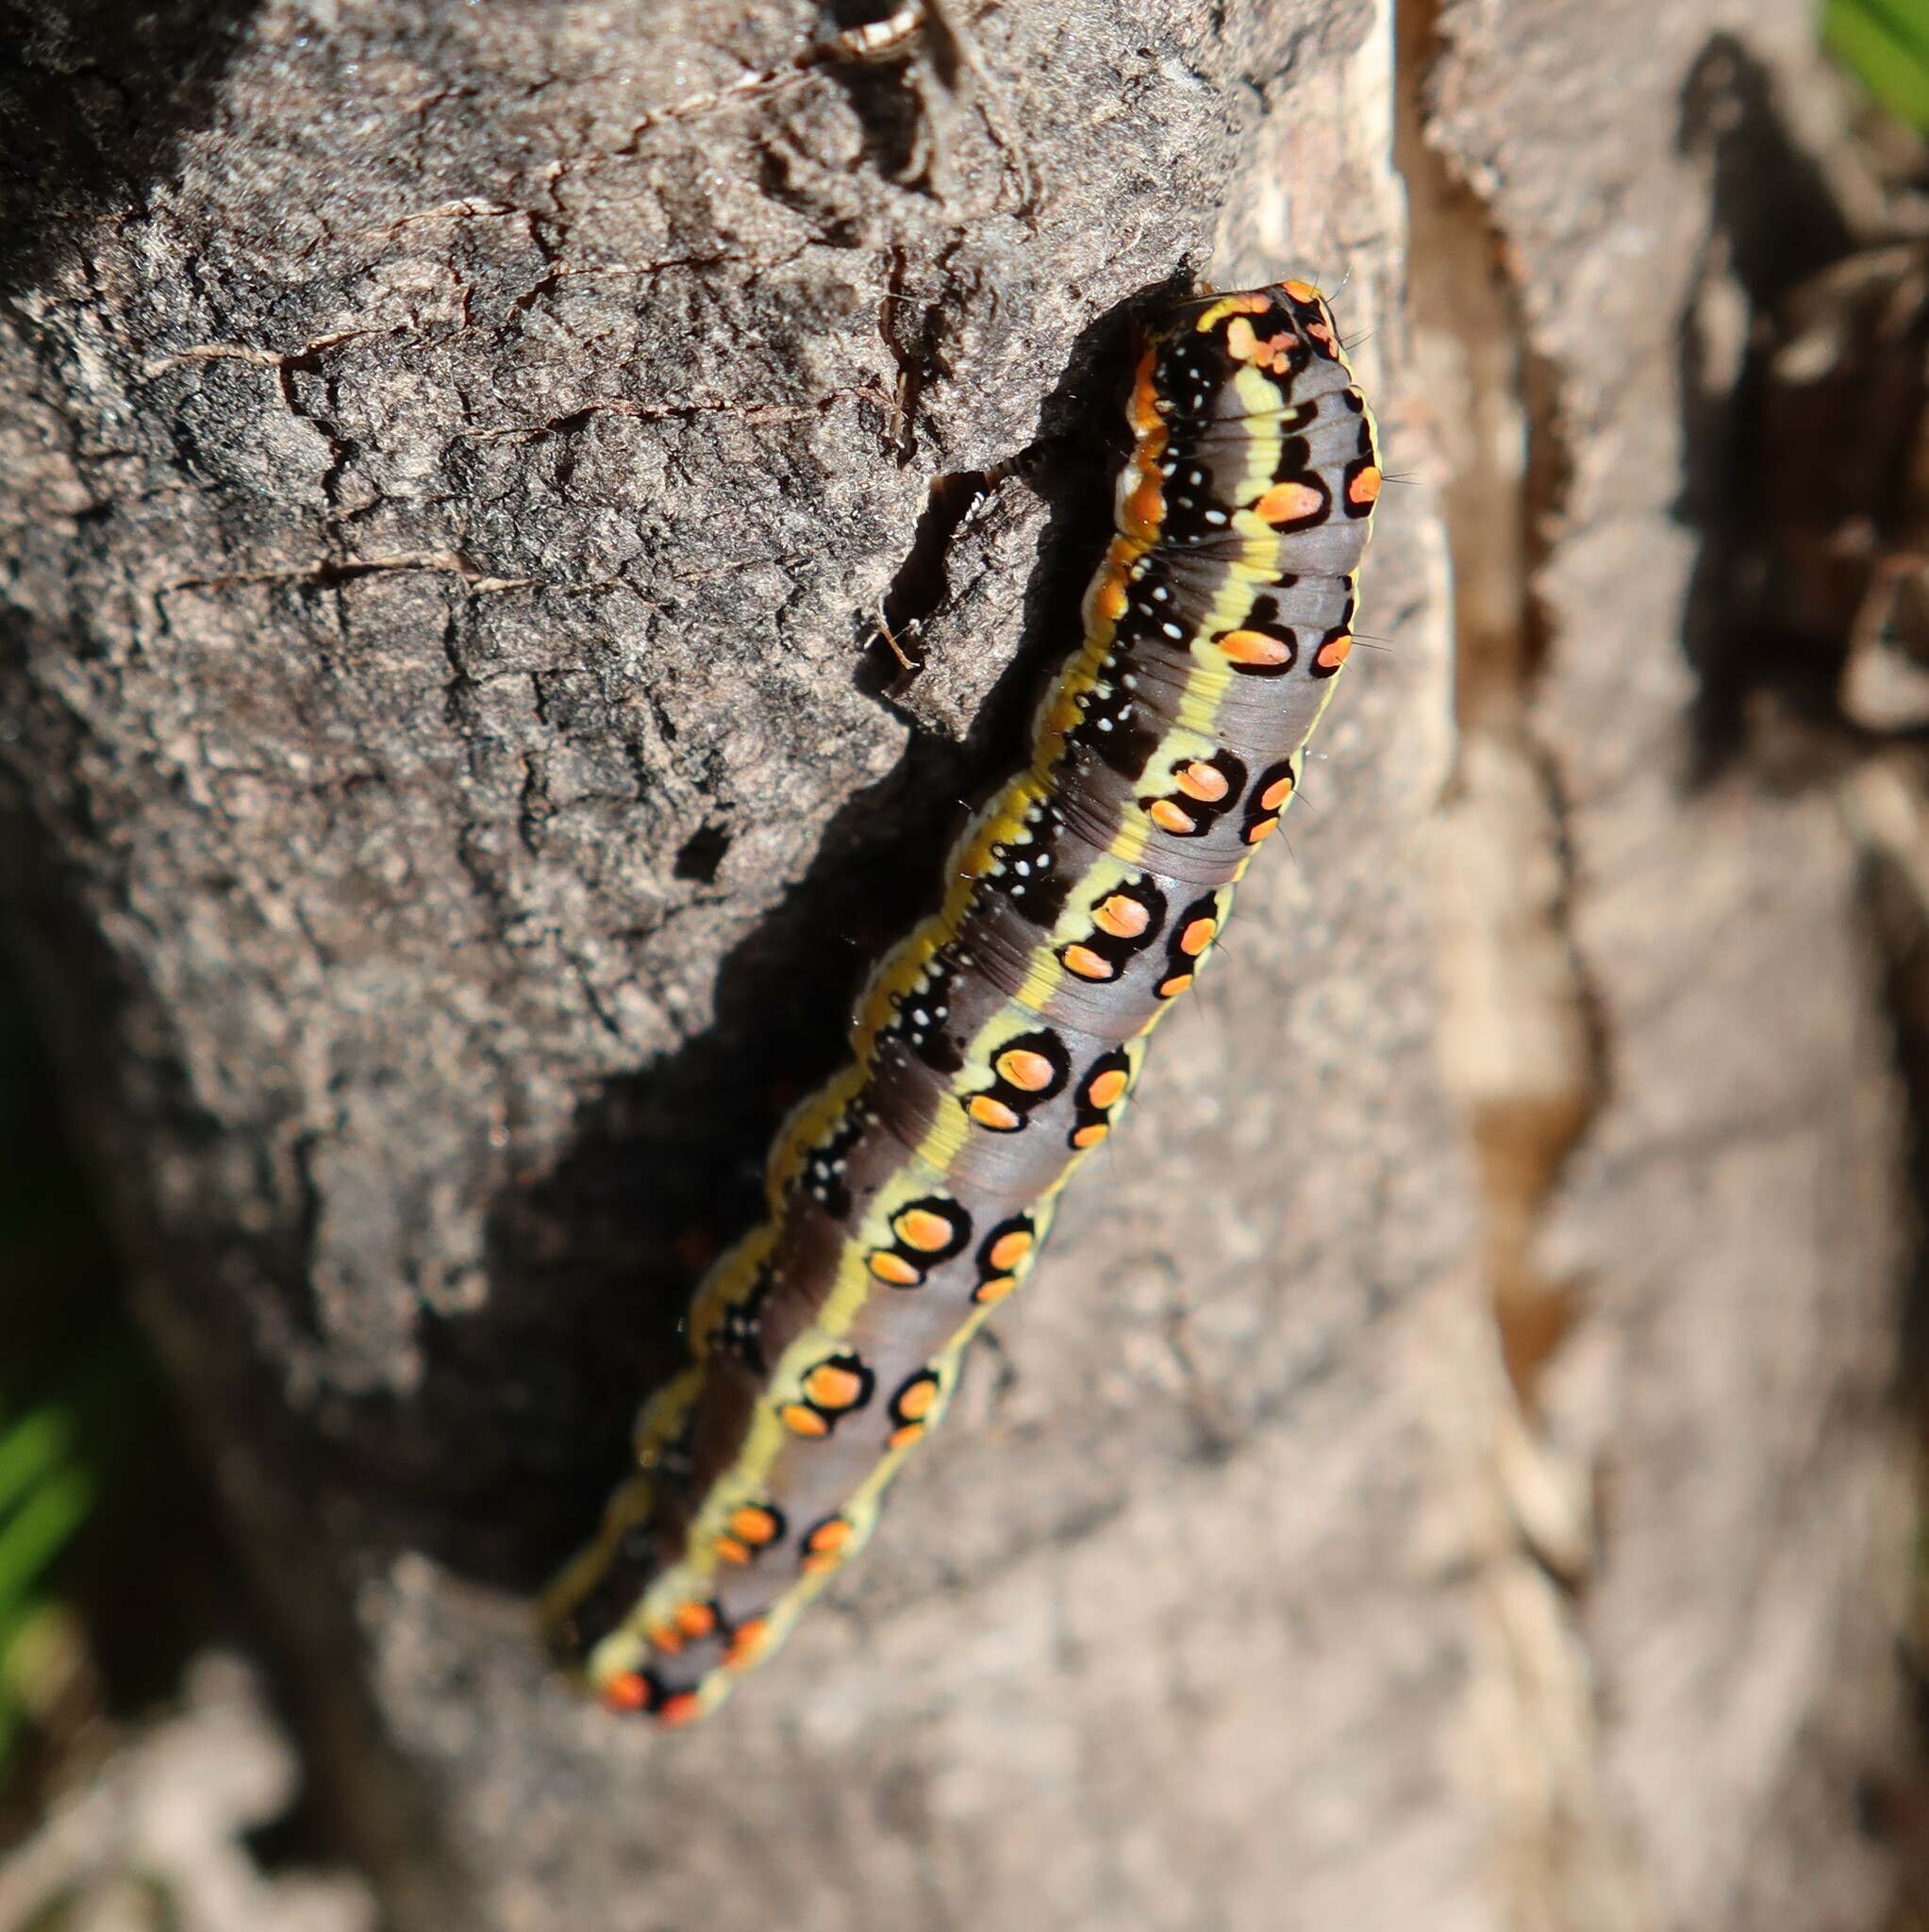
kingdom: Animalia
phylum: Arthropoda
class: Insecta
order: Lepidoptera
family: Noctuidae
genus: Cucullia
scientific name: Cucullia inaequalis
